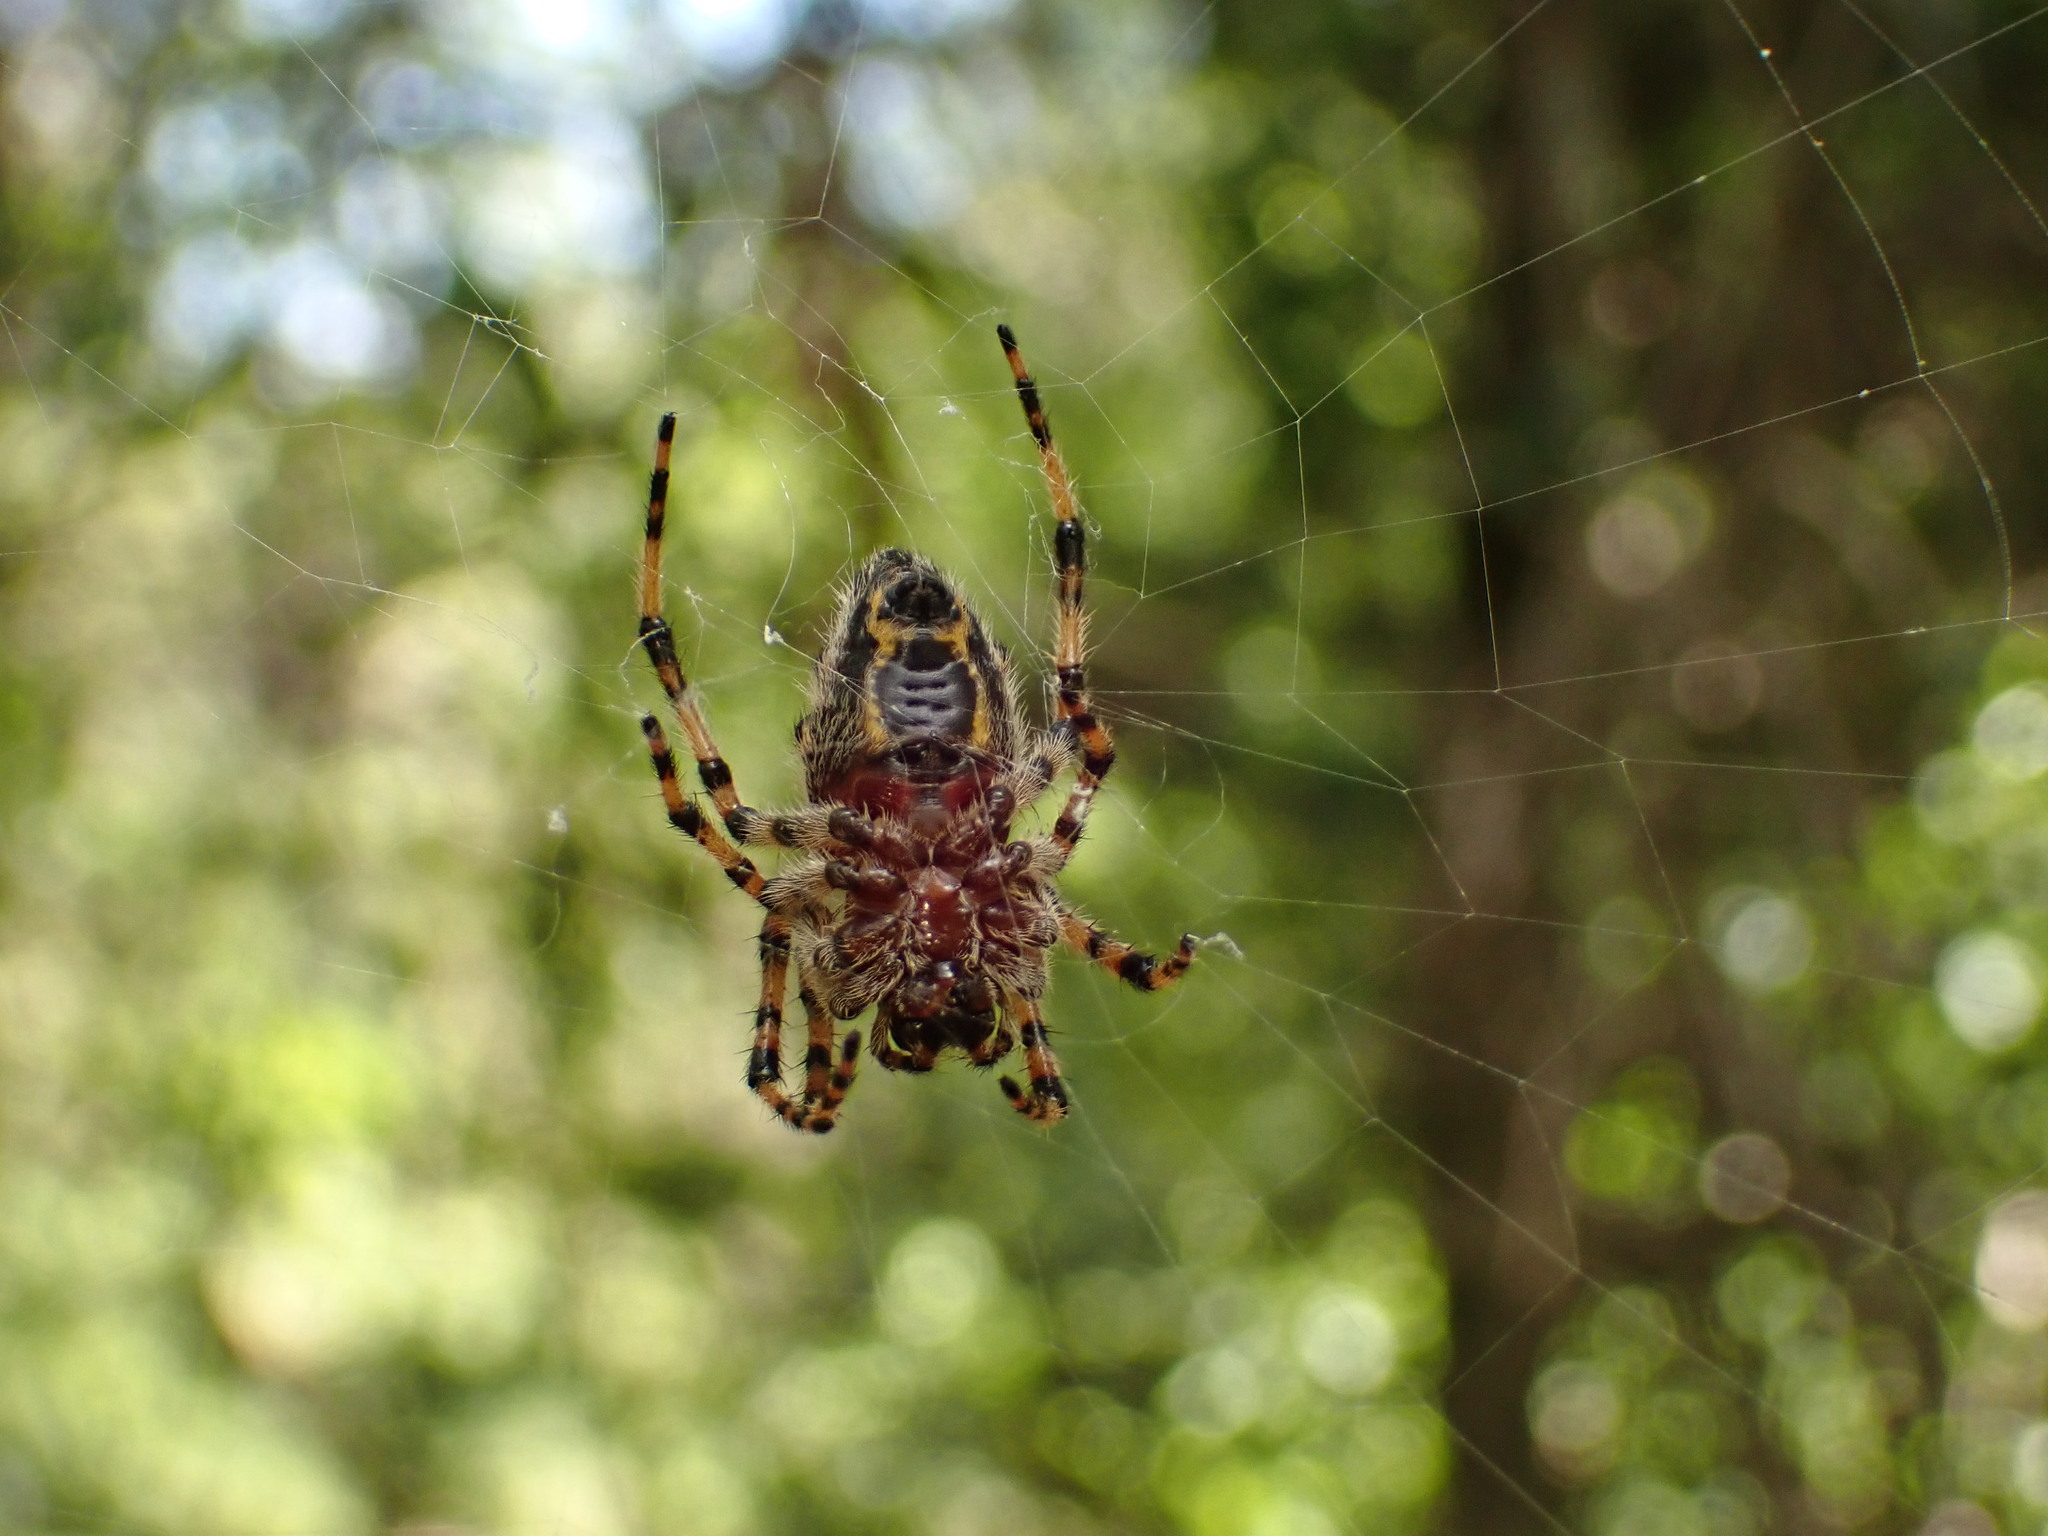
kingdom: Animalia
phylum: Arthropoda
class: Arachnida
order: Araneae
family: Araneidae
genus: Alpaida
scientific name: Alpaida alticeps
